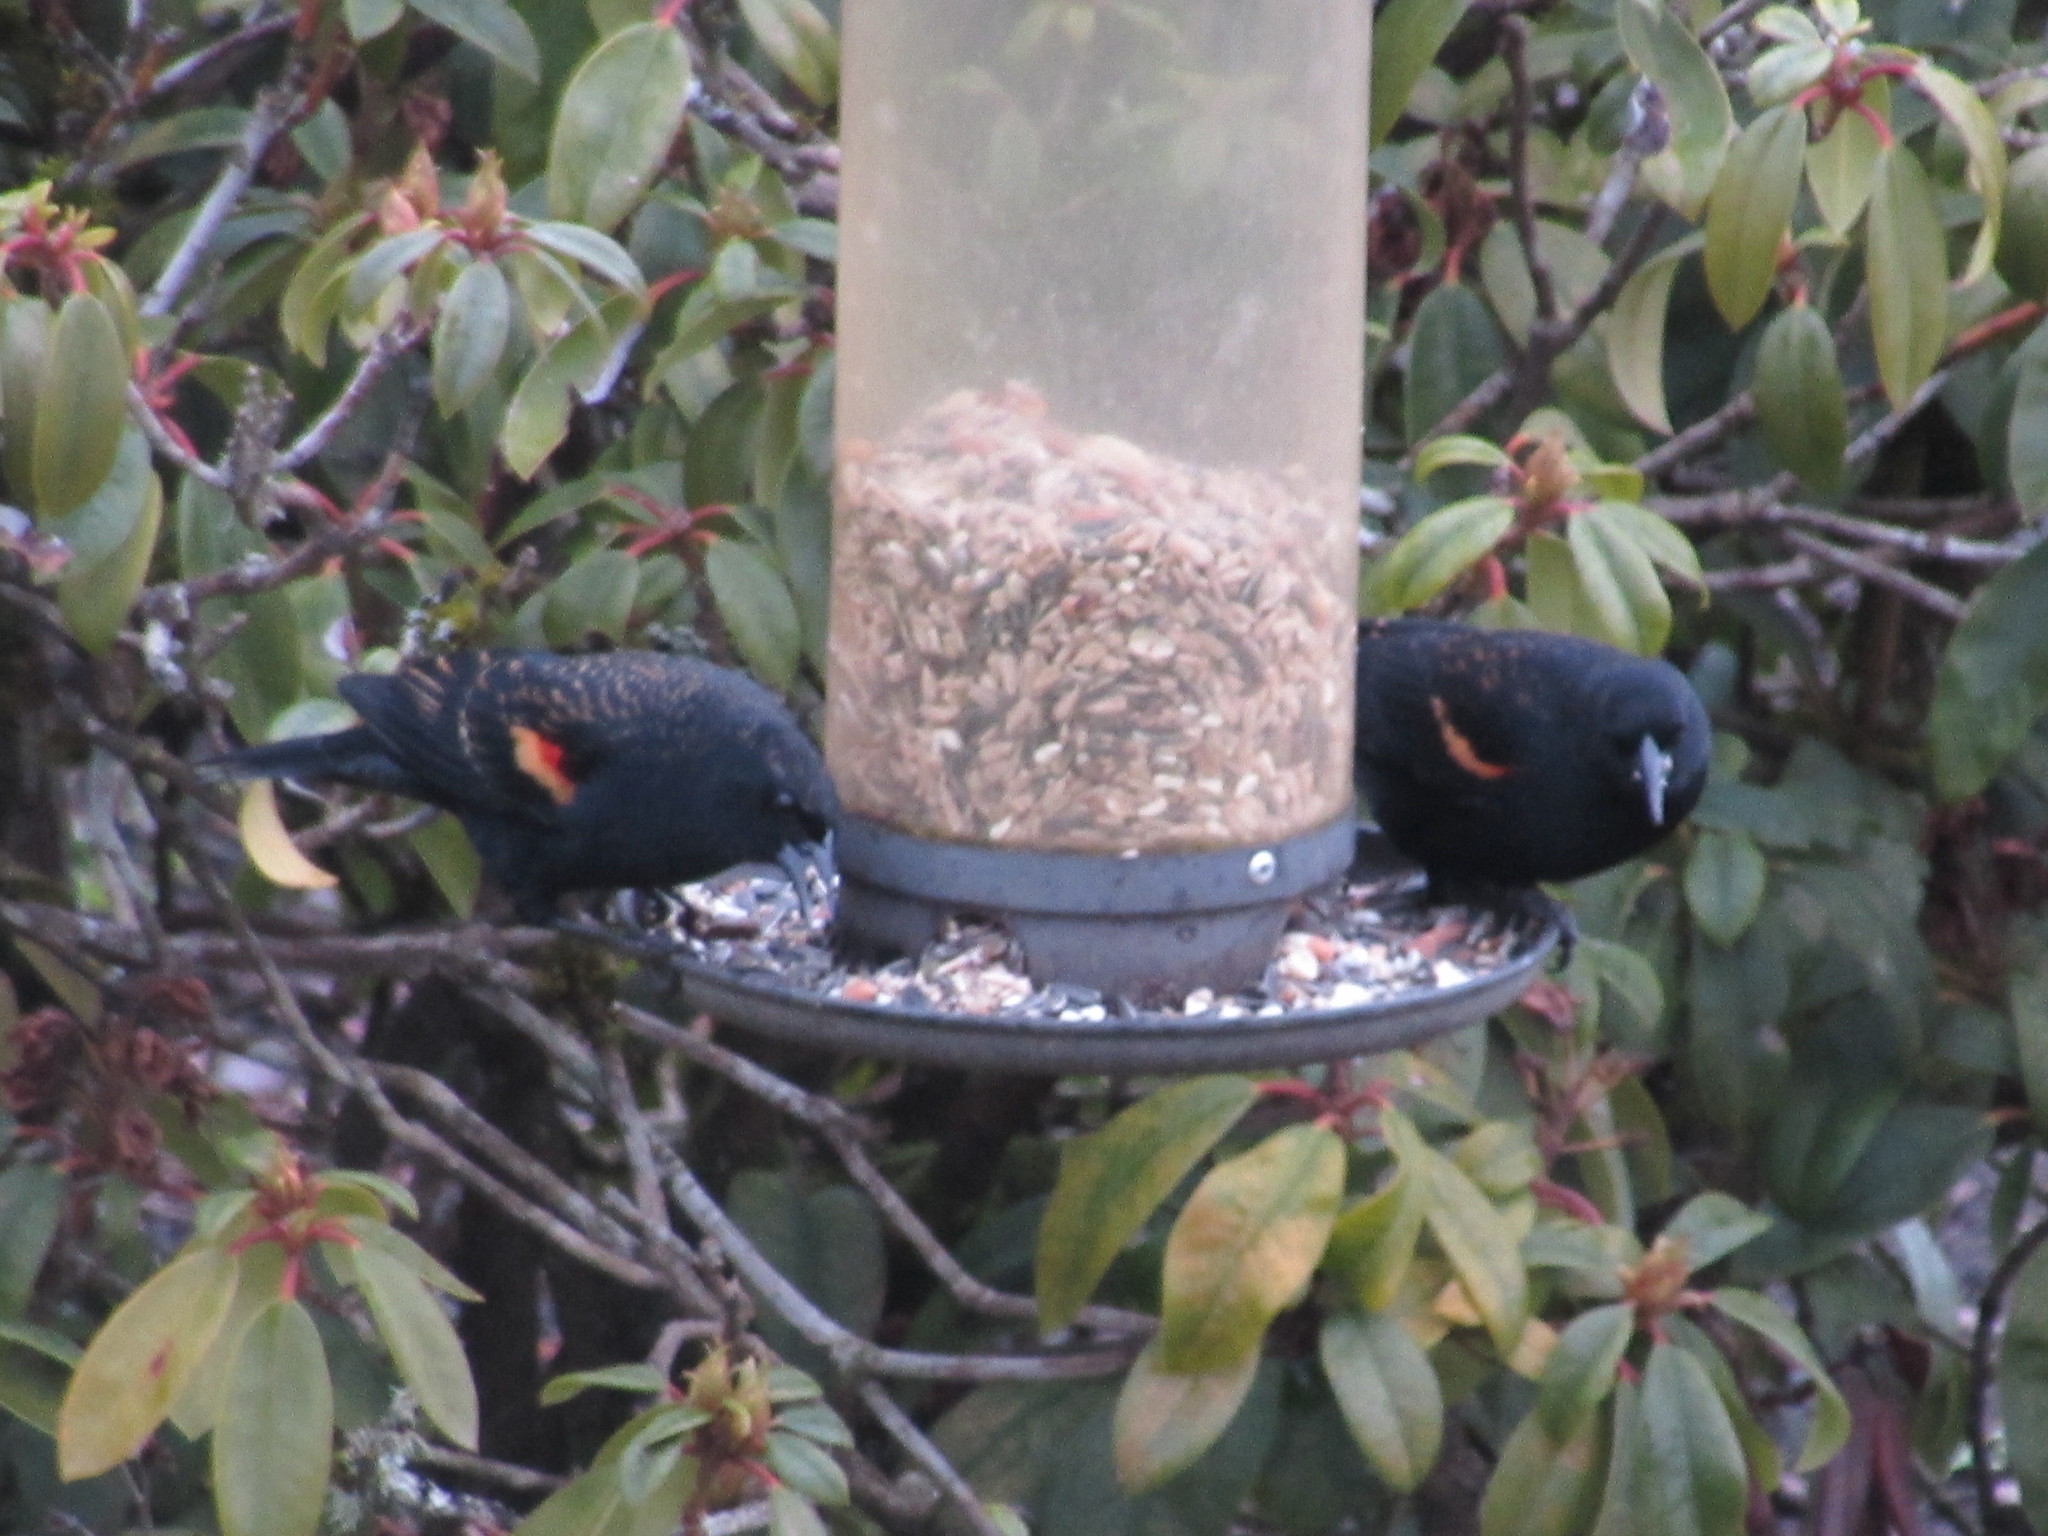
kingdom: Animalia
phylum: Chordata
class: Aves
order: Passeriformes
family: Icteridae
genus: Agelaius
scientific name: Agelaius phoeniceus
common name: Red-winged blackbird
